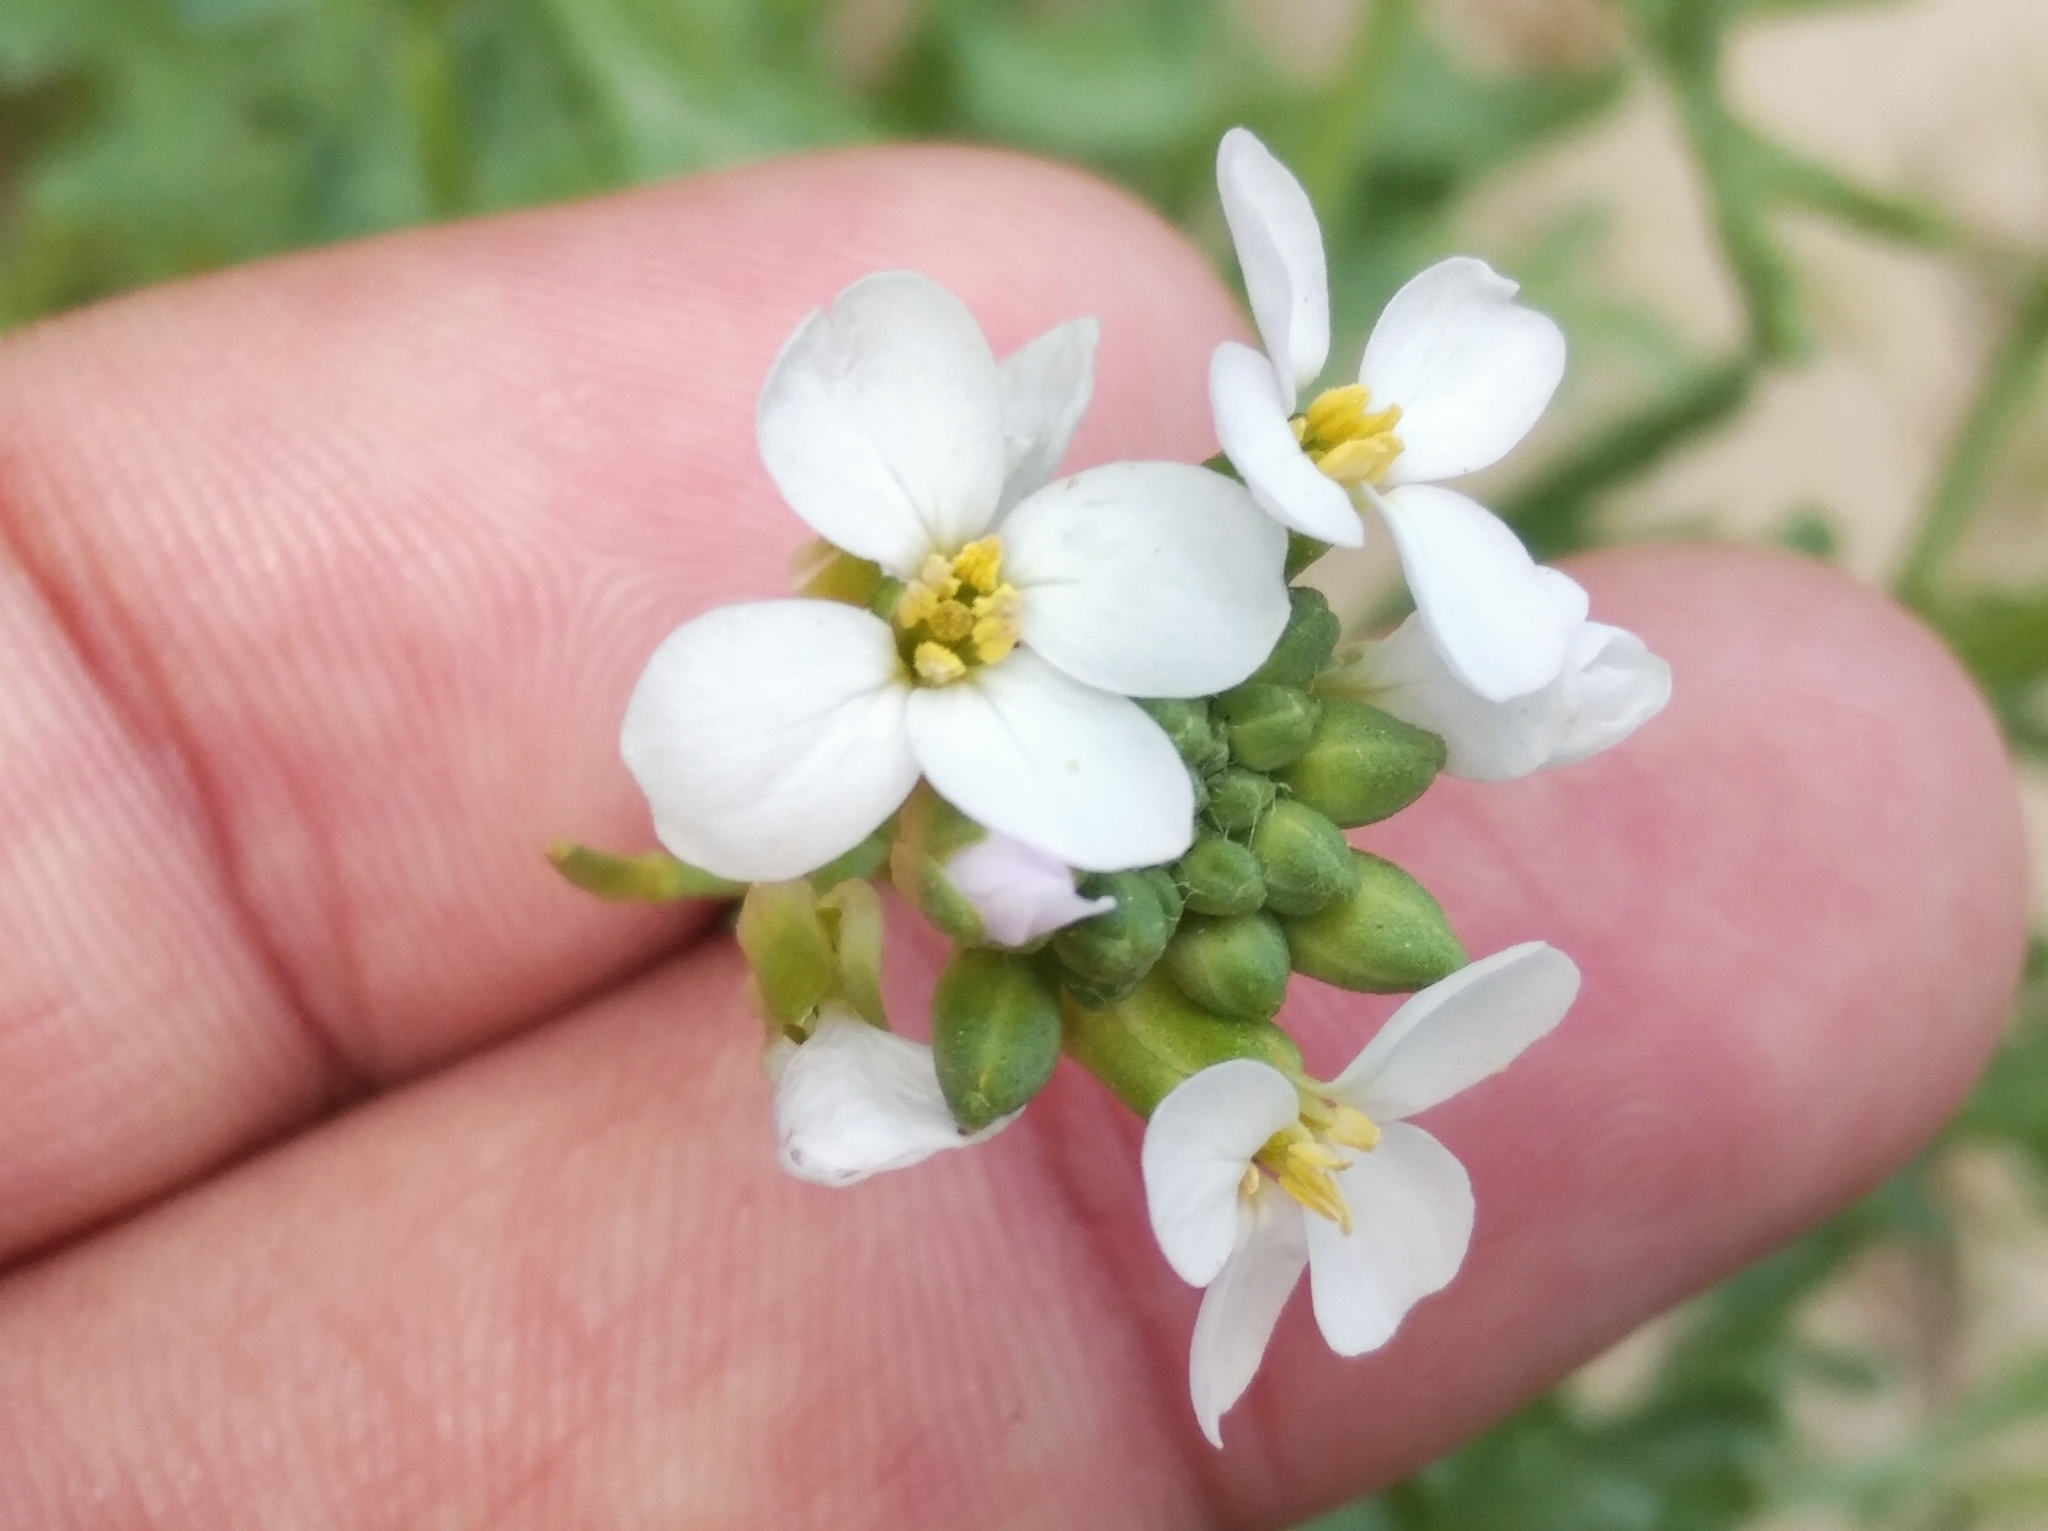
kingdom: Plantae
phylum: Tracheophyta
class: Magnoliopsida
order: Brassicales
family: Brassicaceae
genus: Cakile
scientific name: Cakile maritima
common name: Sea rocket
